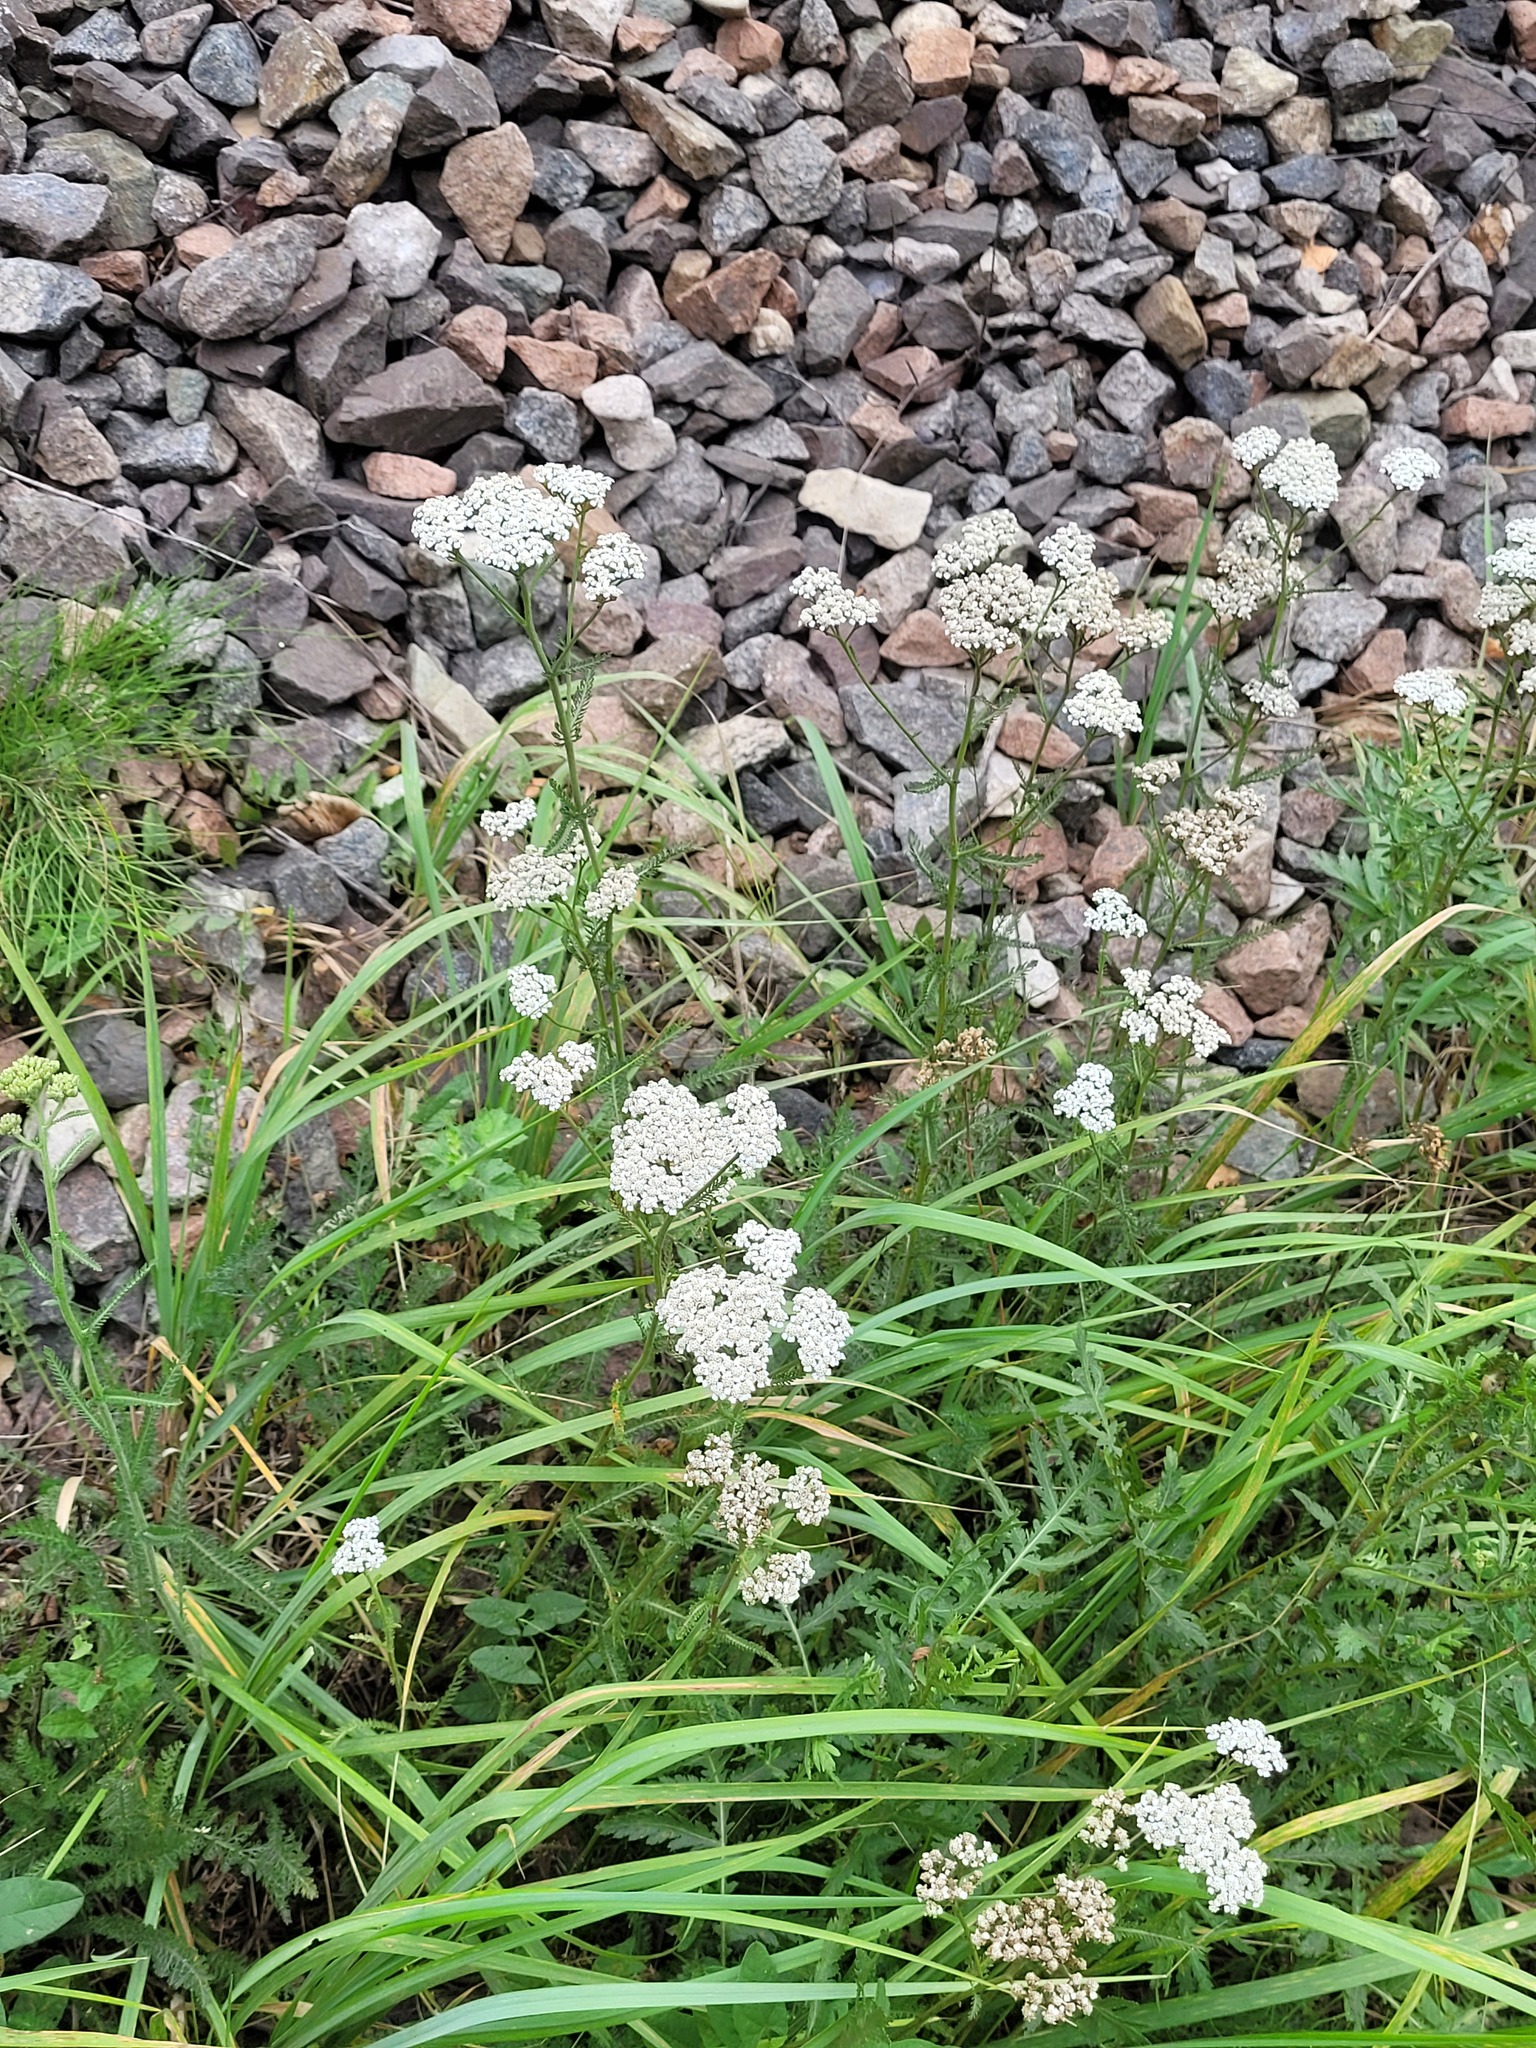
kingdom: Plantae
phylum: Tracheophyta
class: Magnoliopsida
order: Asterales
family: Asteraceae
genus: Achillea
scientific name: Achillea millefolium
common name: Yarrow
